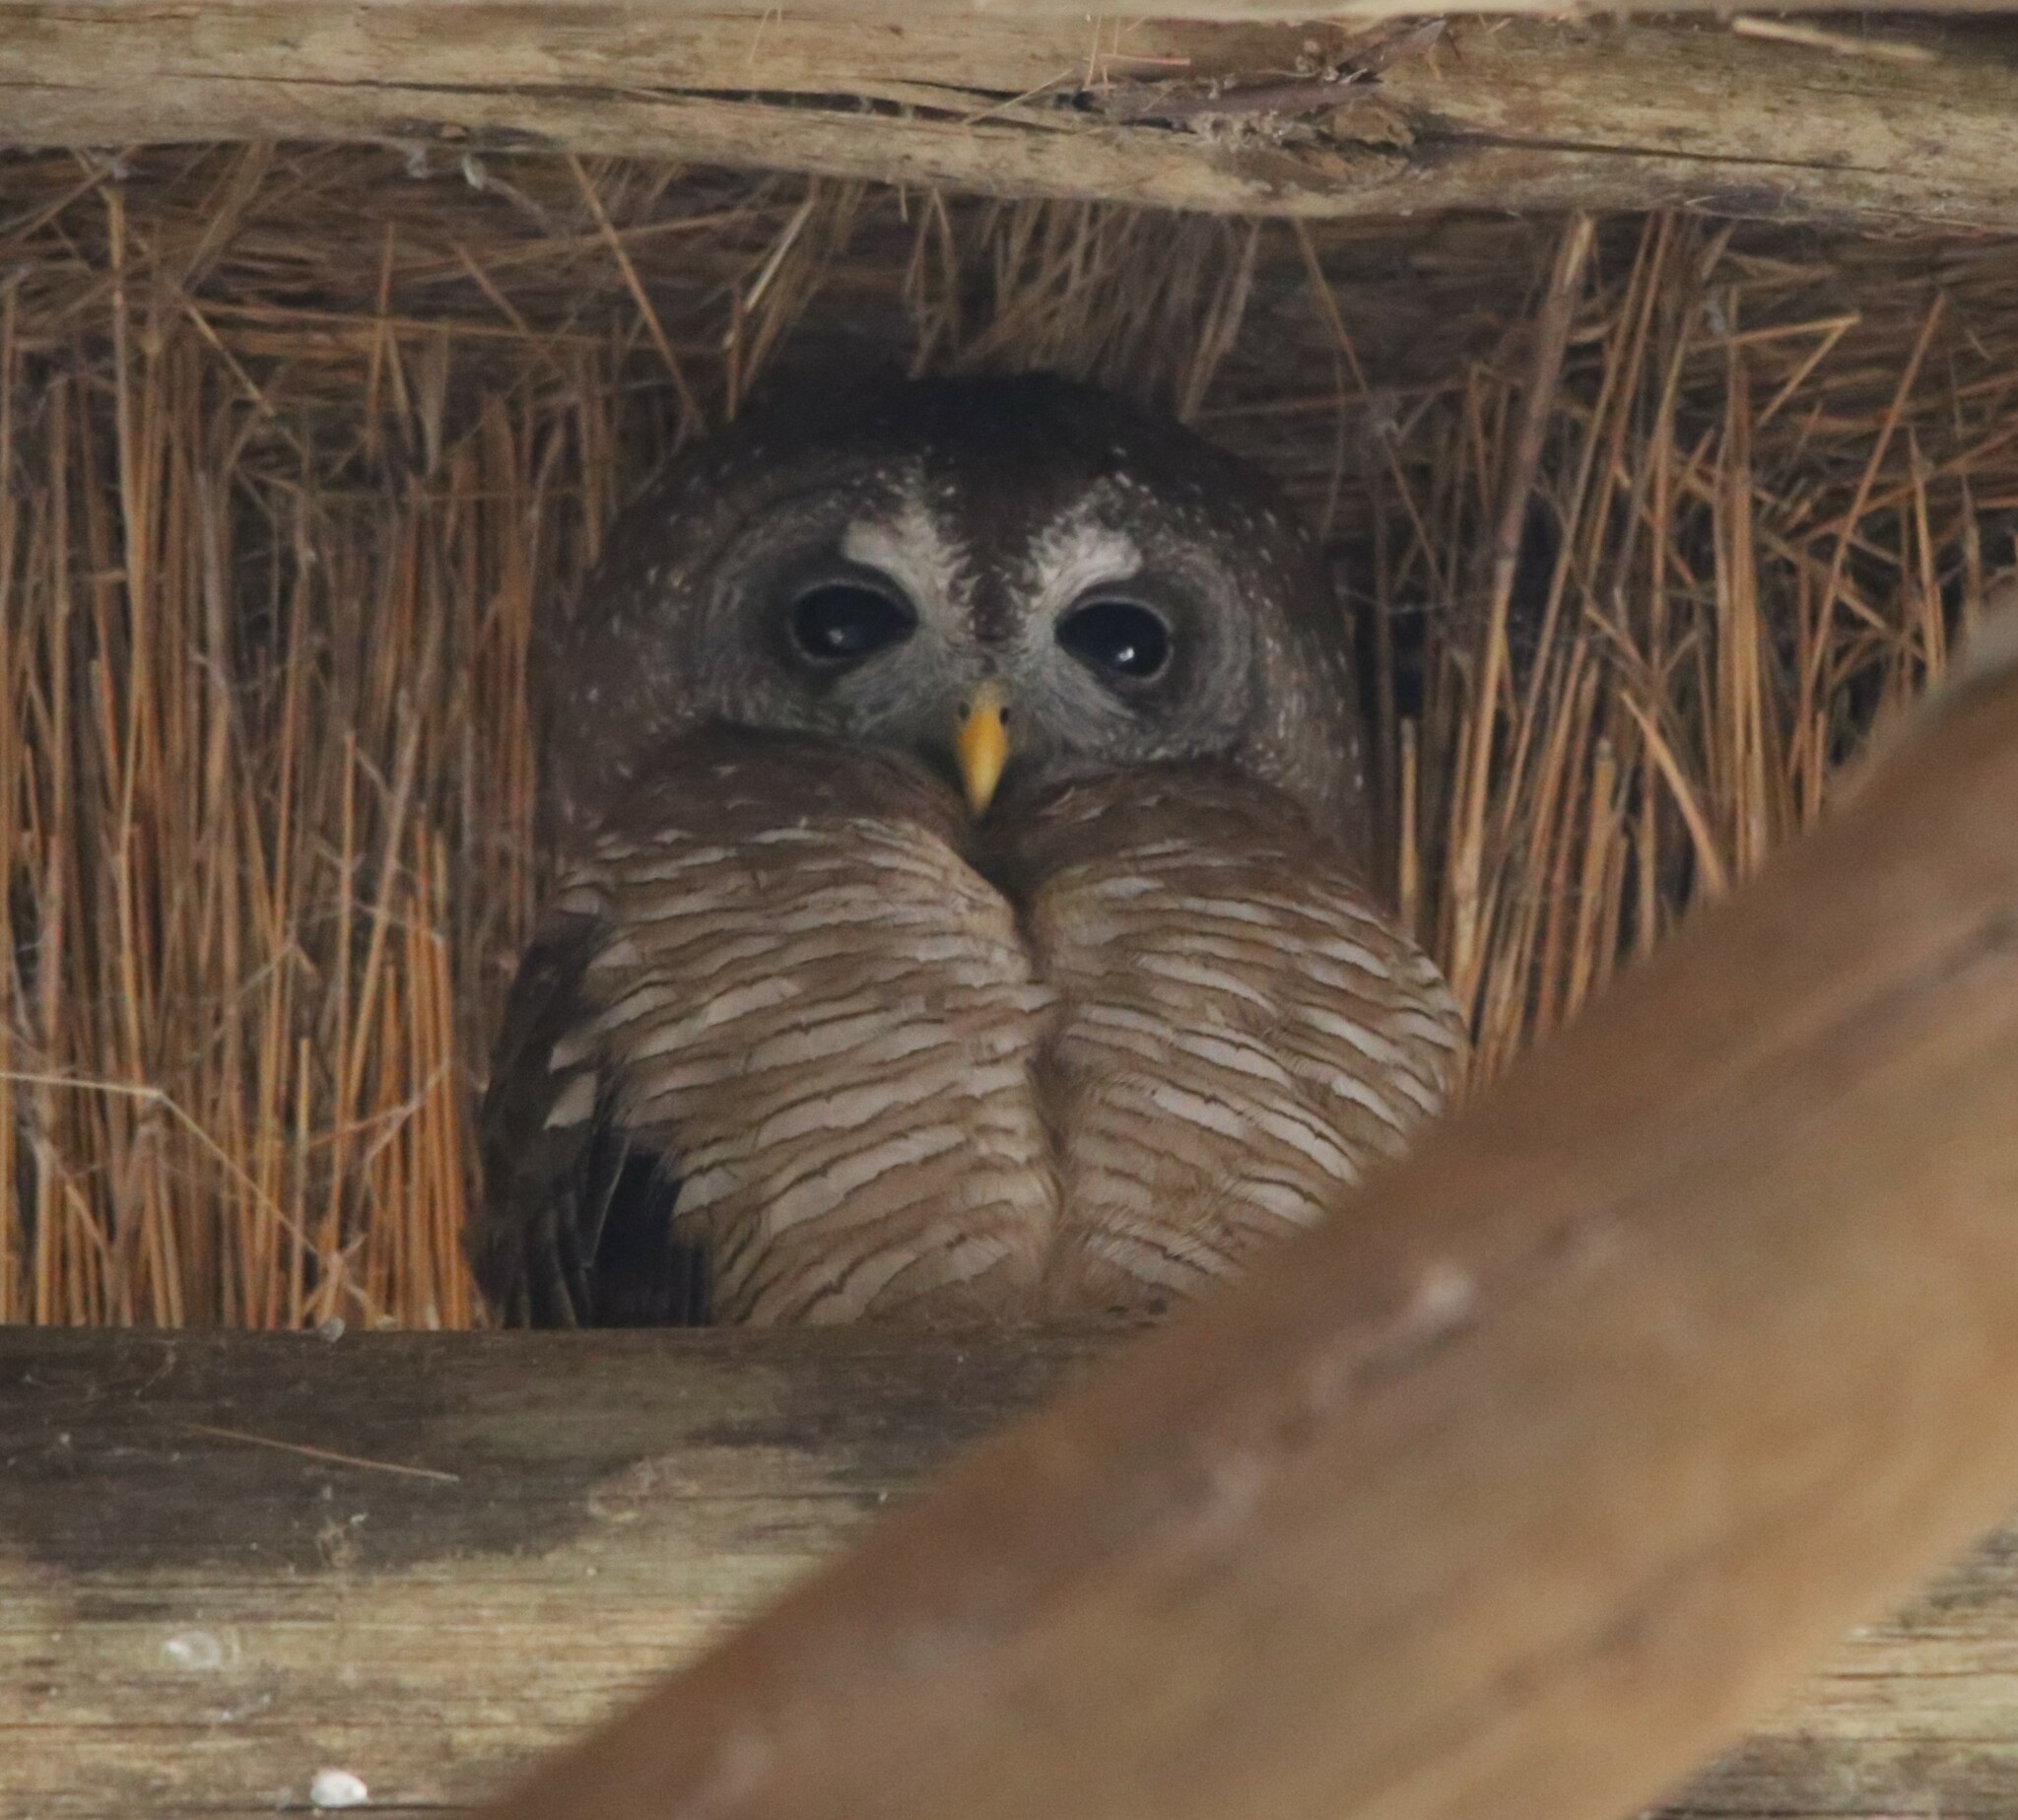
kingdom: Animalia
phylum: Chordata
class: Aves
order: Strigiformes
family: Strigidae
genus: Strix
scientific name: Strix woodfordii
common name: African wood owl
